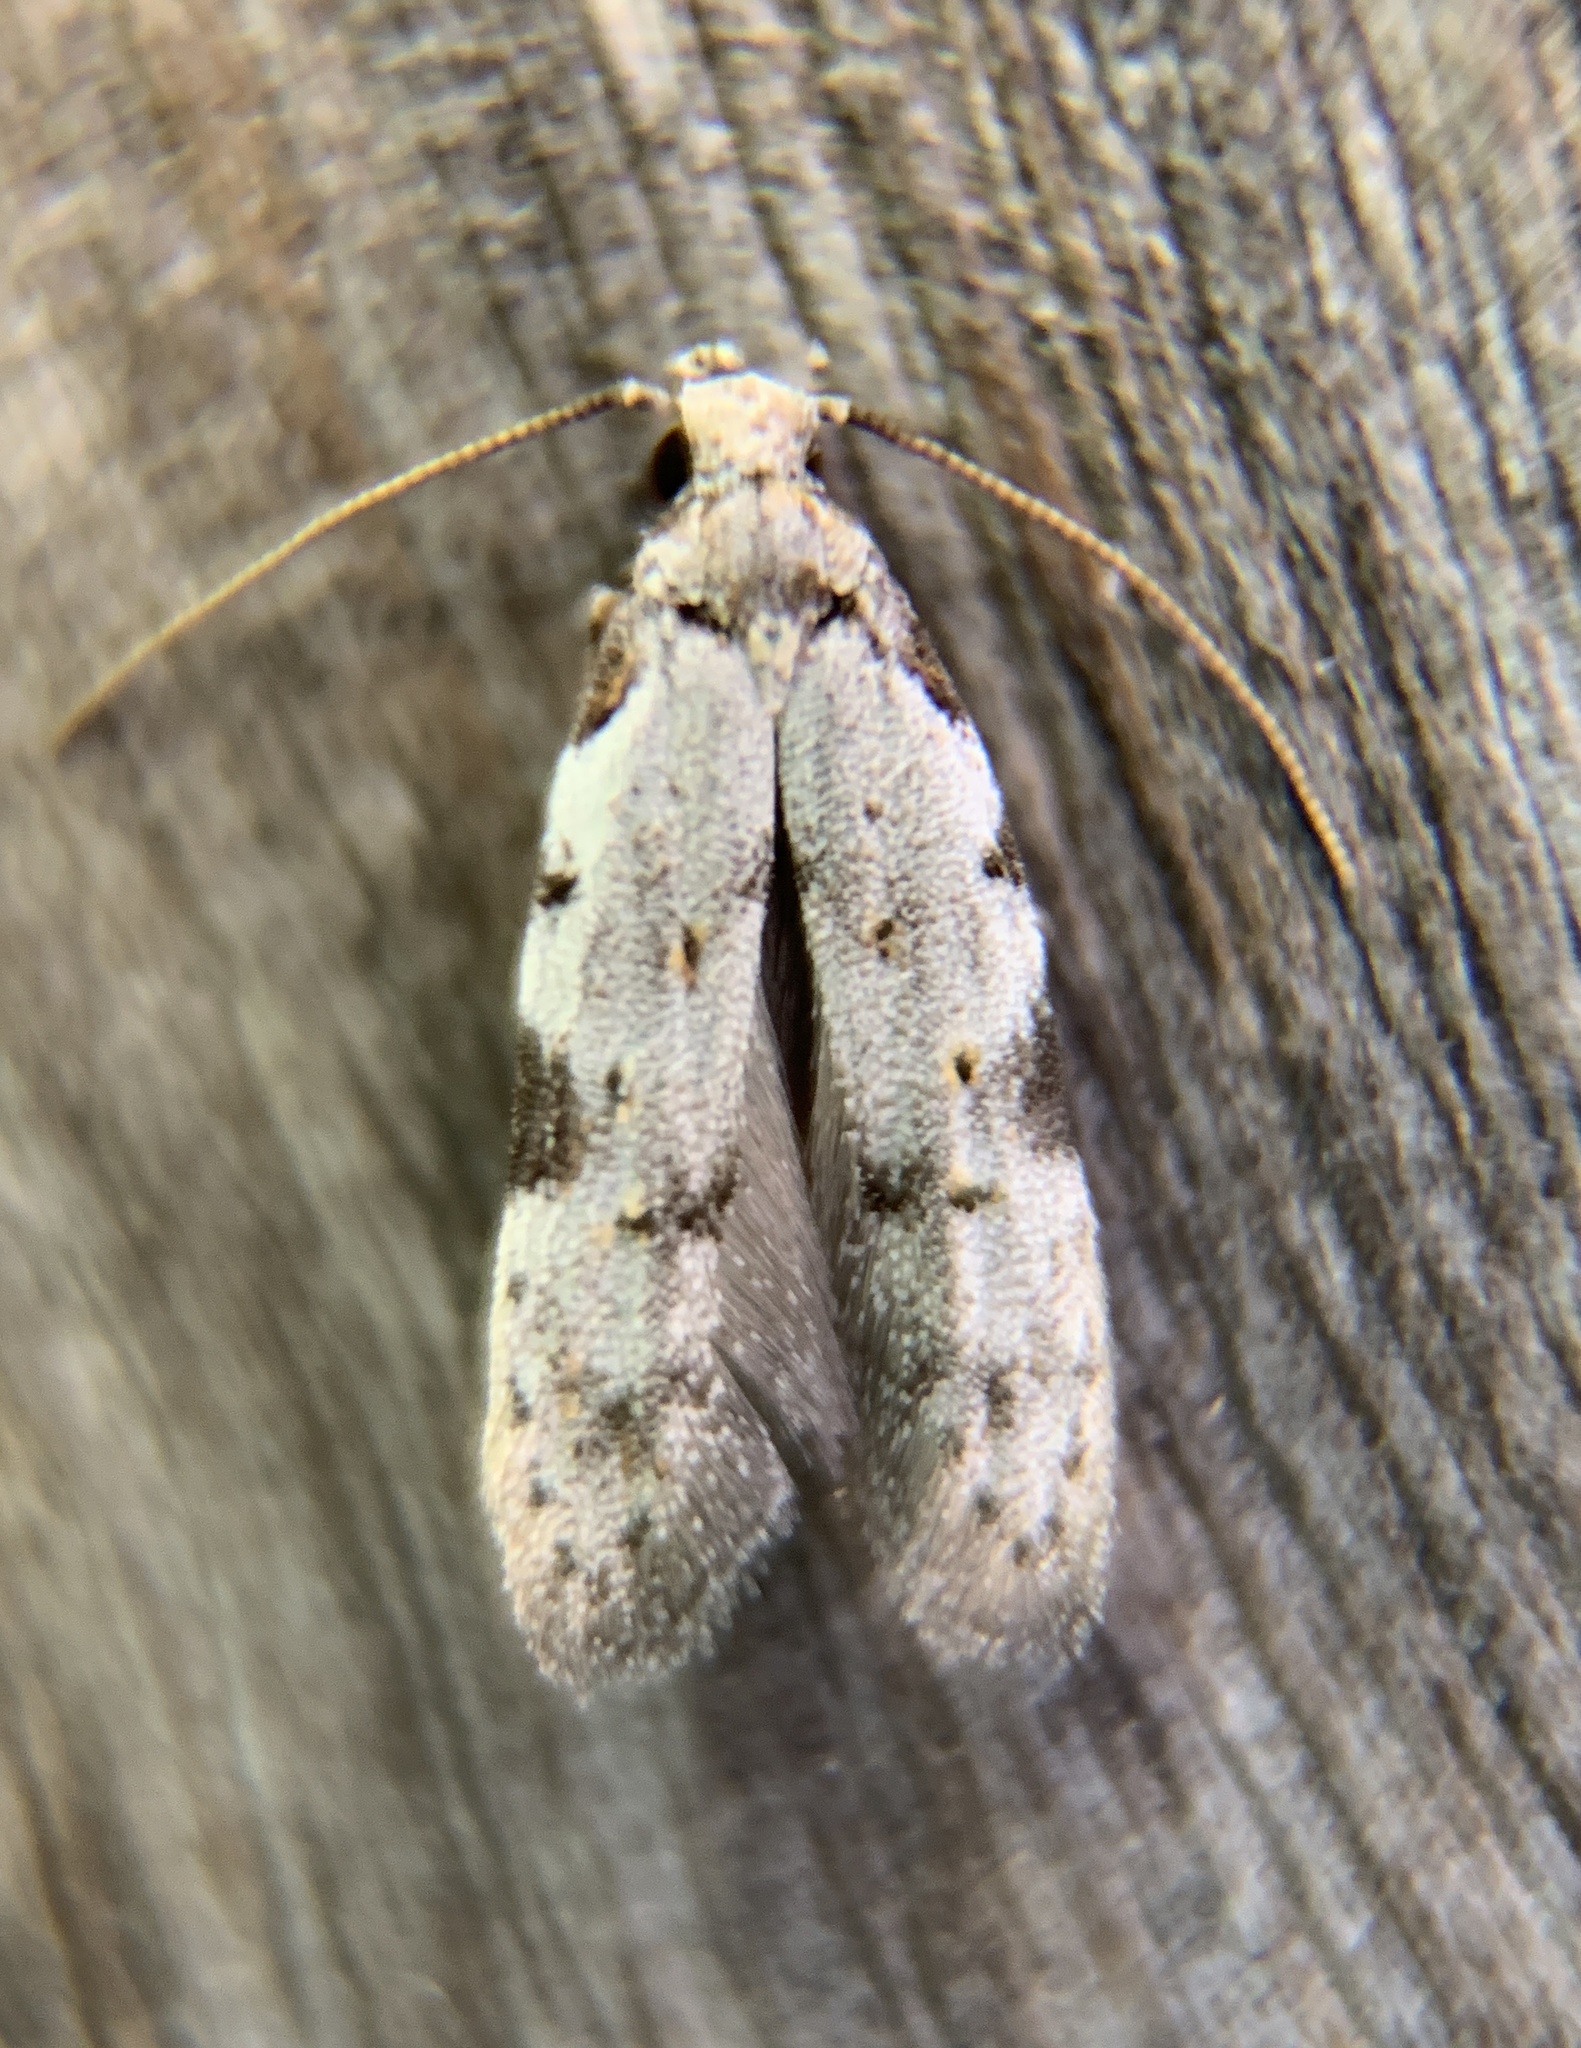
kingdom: Animalia
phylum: Arthropoda
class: Insecta
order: Lepidoptera
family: Autostichidae
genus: Taygete
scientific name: Taygete attributella
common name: Triangle-marked twirler moth
